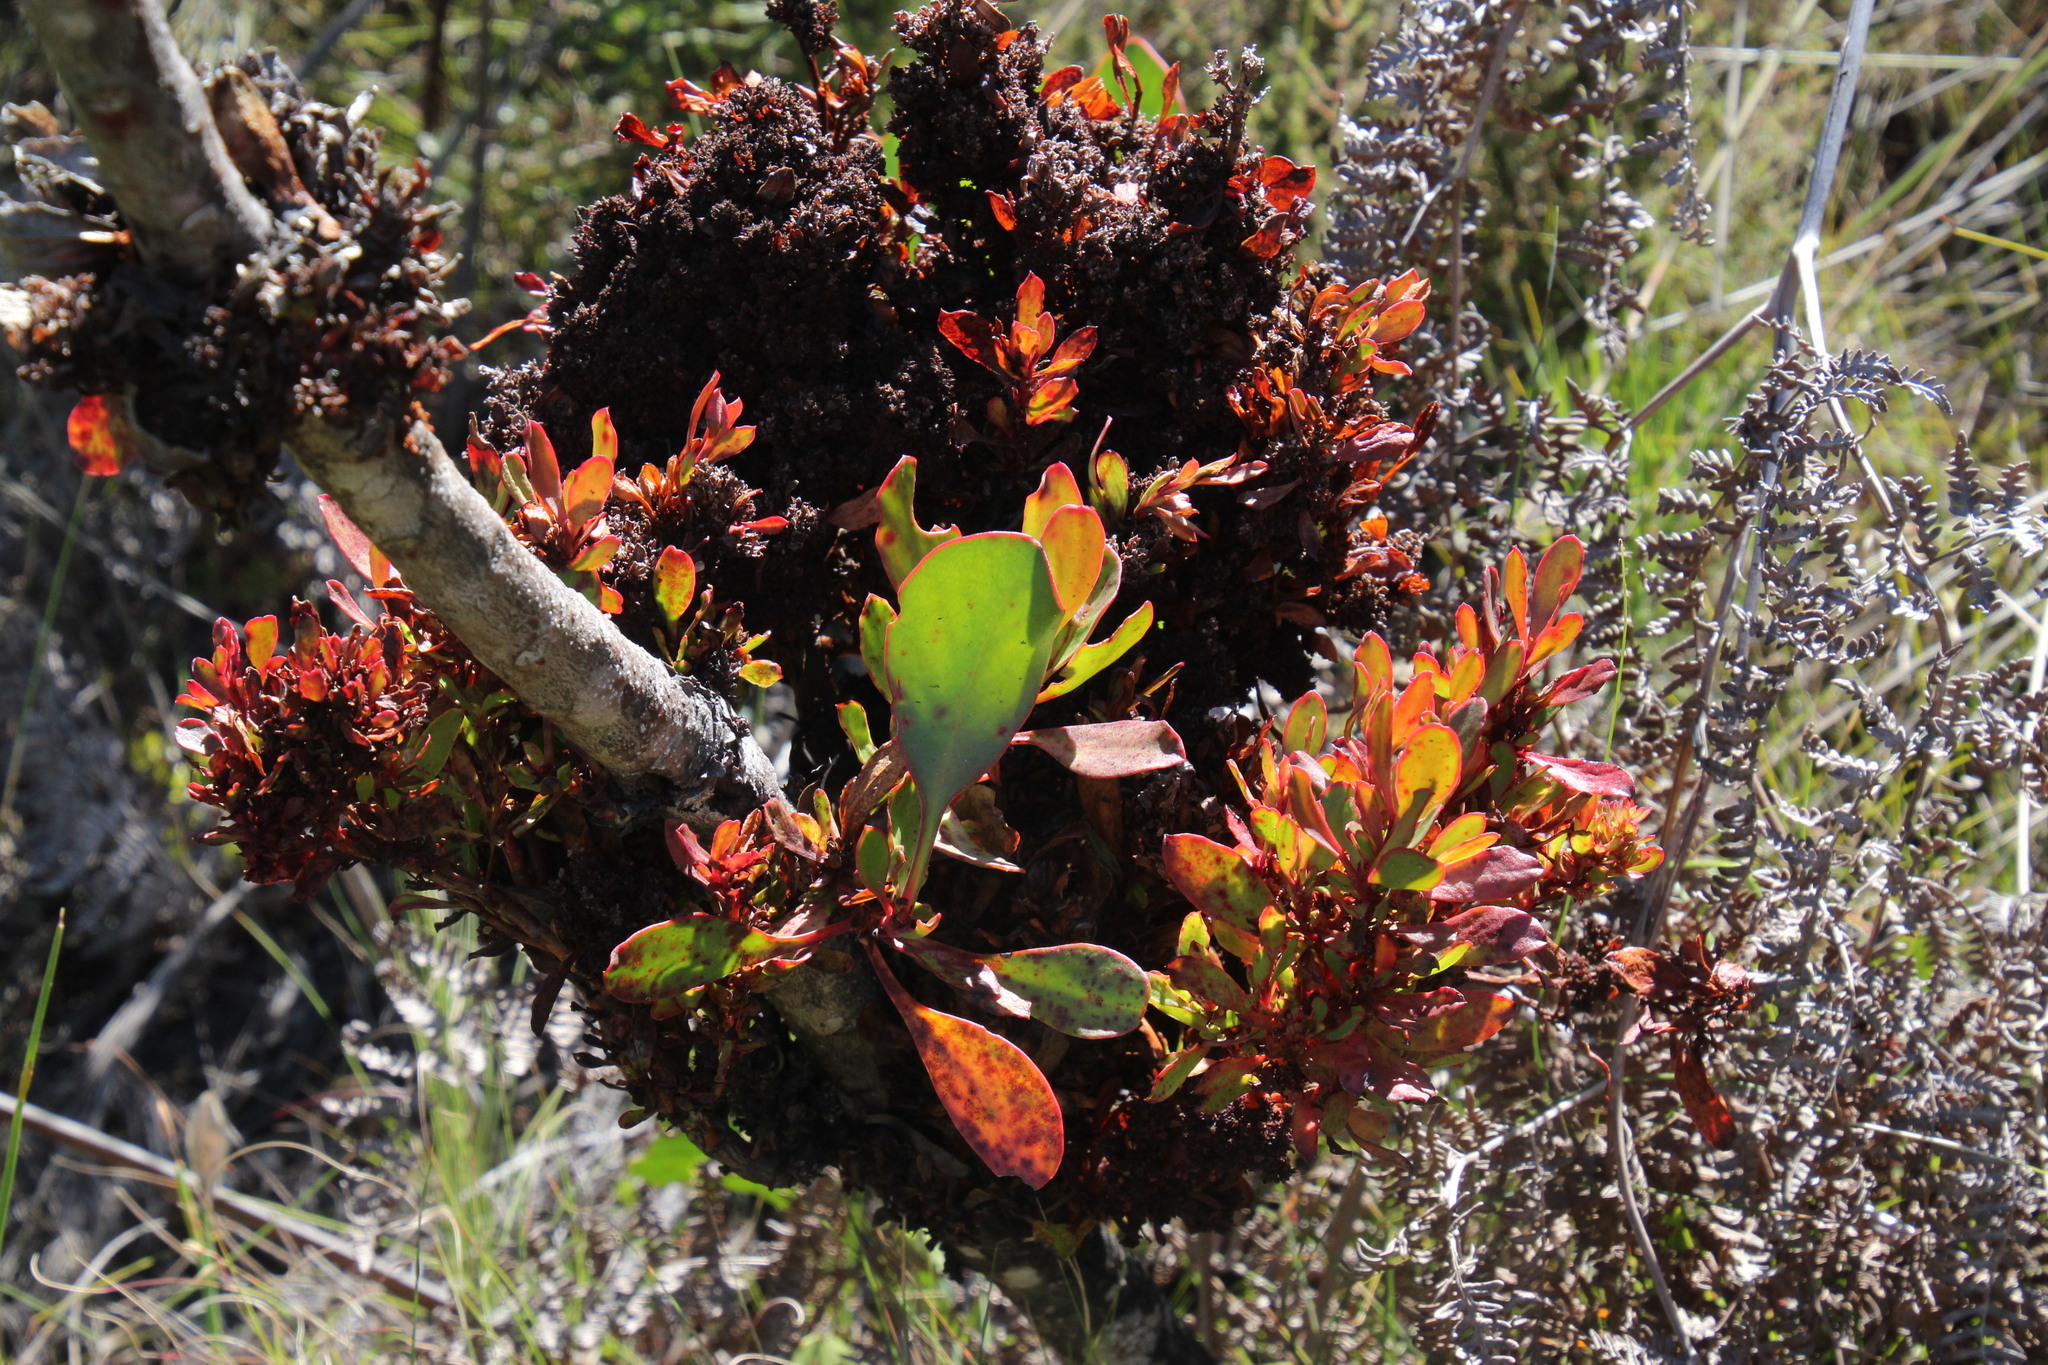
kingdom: Bacteria
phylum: Firmicutes
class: Bacilli
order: Acholeplasmatales
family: Acholeplasmataceae
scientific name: Acholeplasmataceae
